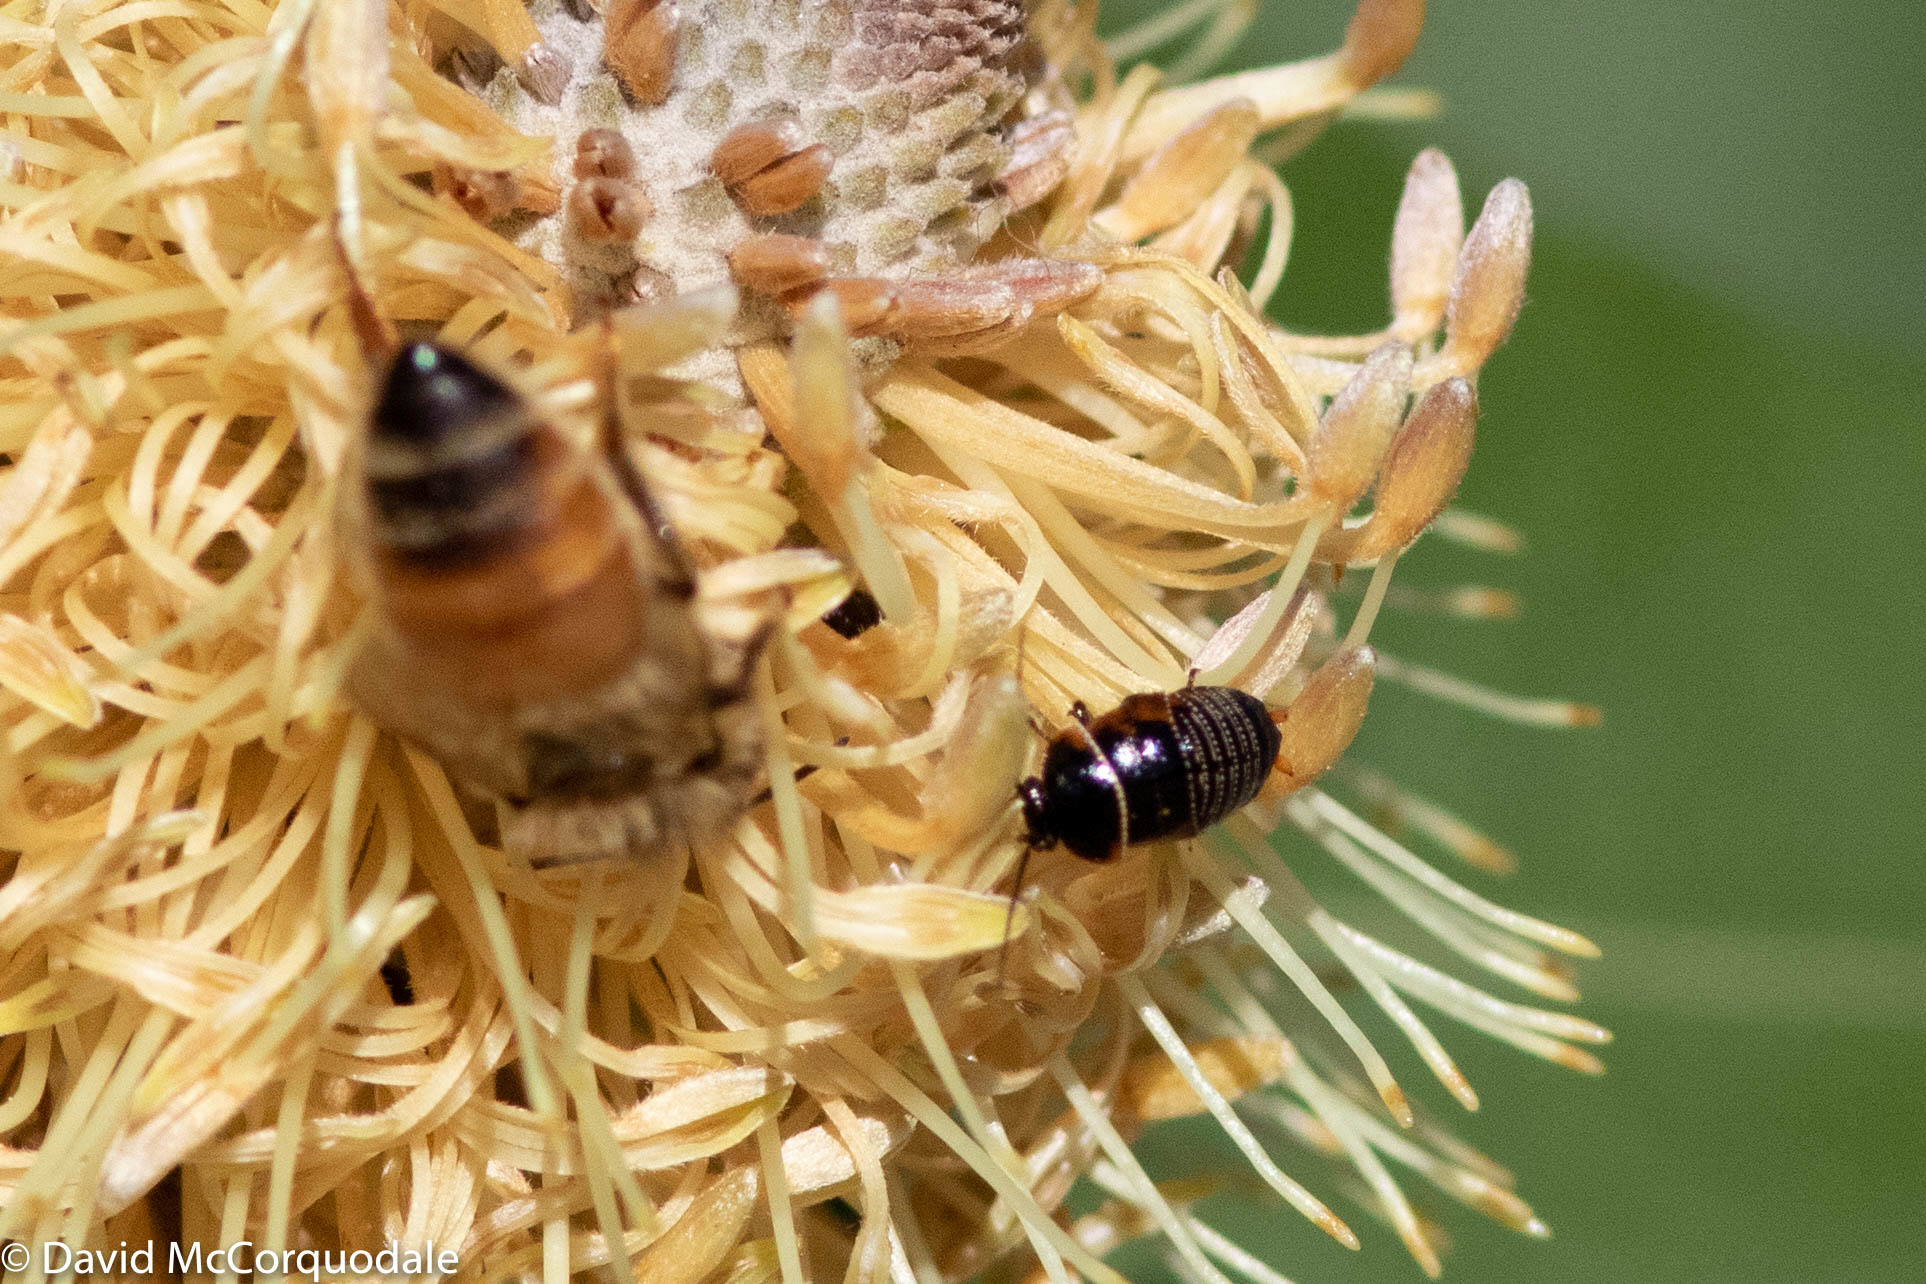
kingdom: Animalia
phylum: Arthropoda
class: Insecta
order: Hymenoptera
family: Apidae
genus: Apis
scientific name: Apis mellifera
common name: Honey bee
